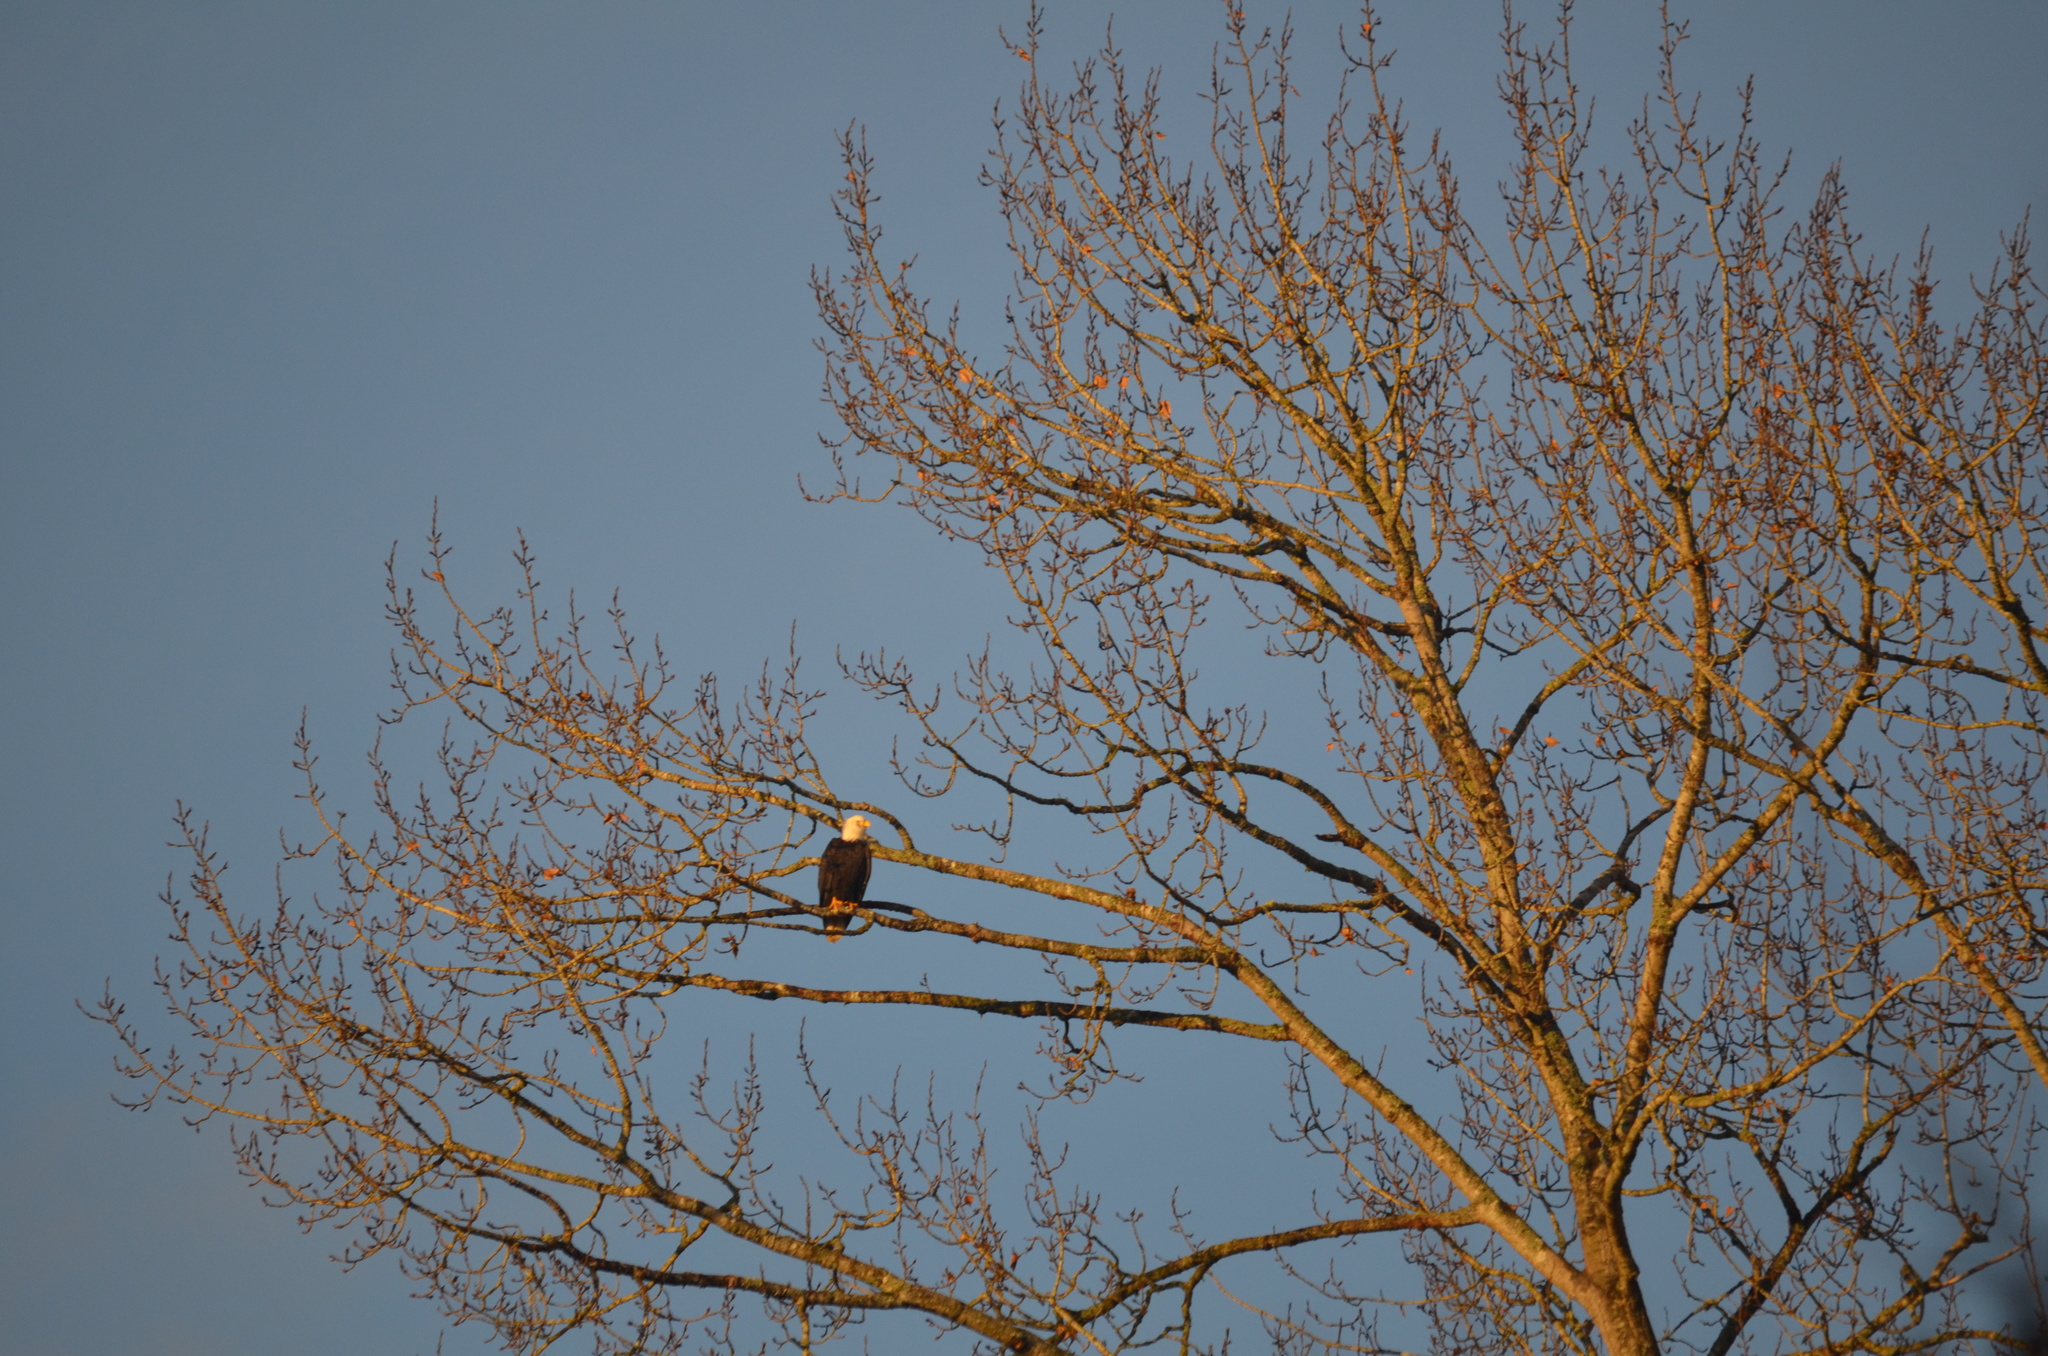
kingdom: Animalia
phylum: Chordata
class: Aves
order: Accipitriformes
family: Accipitridae
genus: Haliaeetus
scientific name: Haliaeetus leucocephalus
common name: Bald eagle
